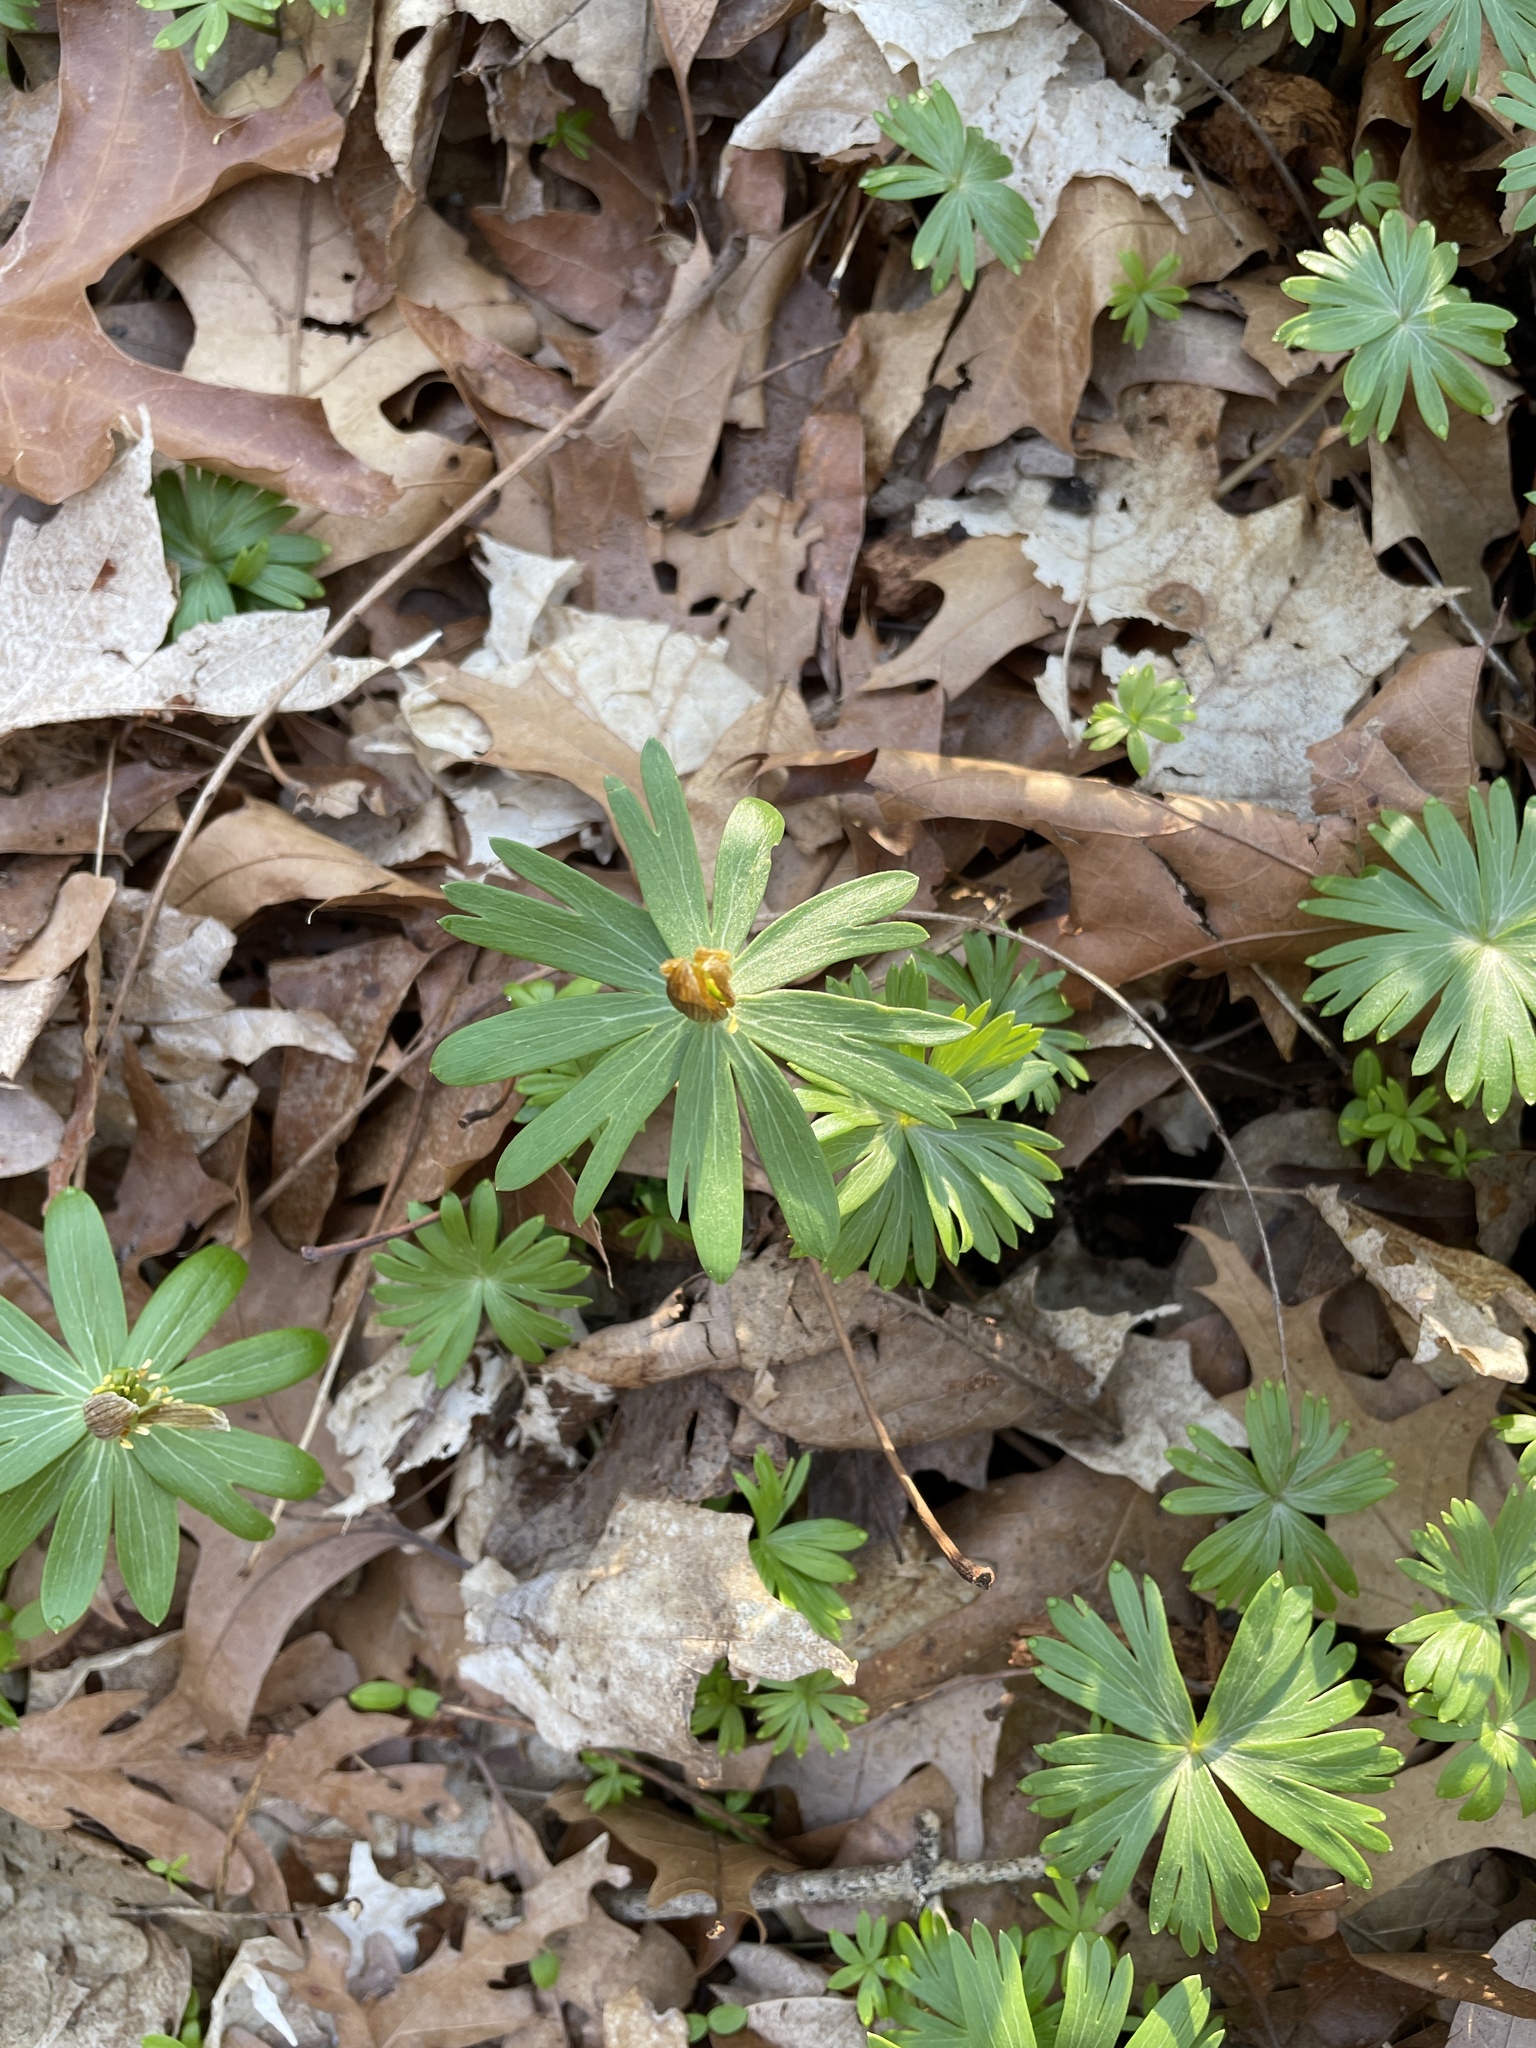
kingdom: Plantae
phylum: Tracheophyta
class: Magnoliopsida
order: Ranunculales
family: Ranunculaceae
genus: Eranthis
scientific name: Eranthis hyemalis
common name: Winter aconite
